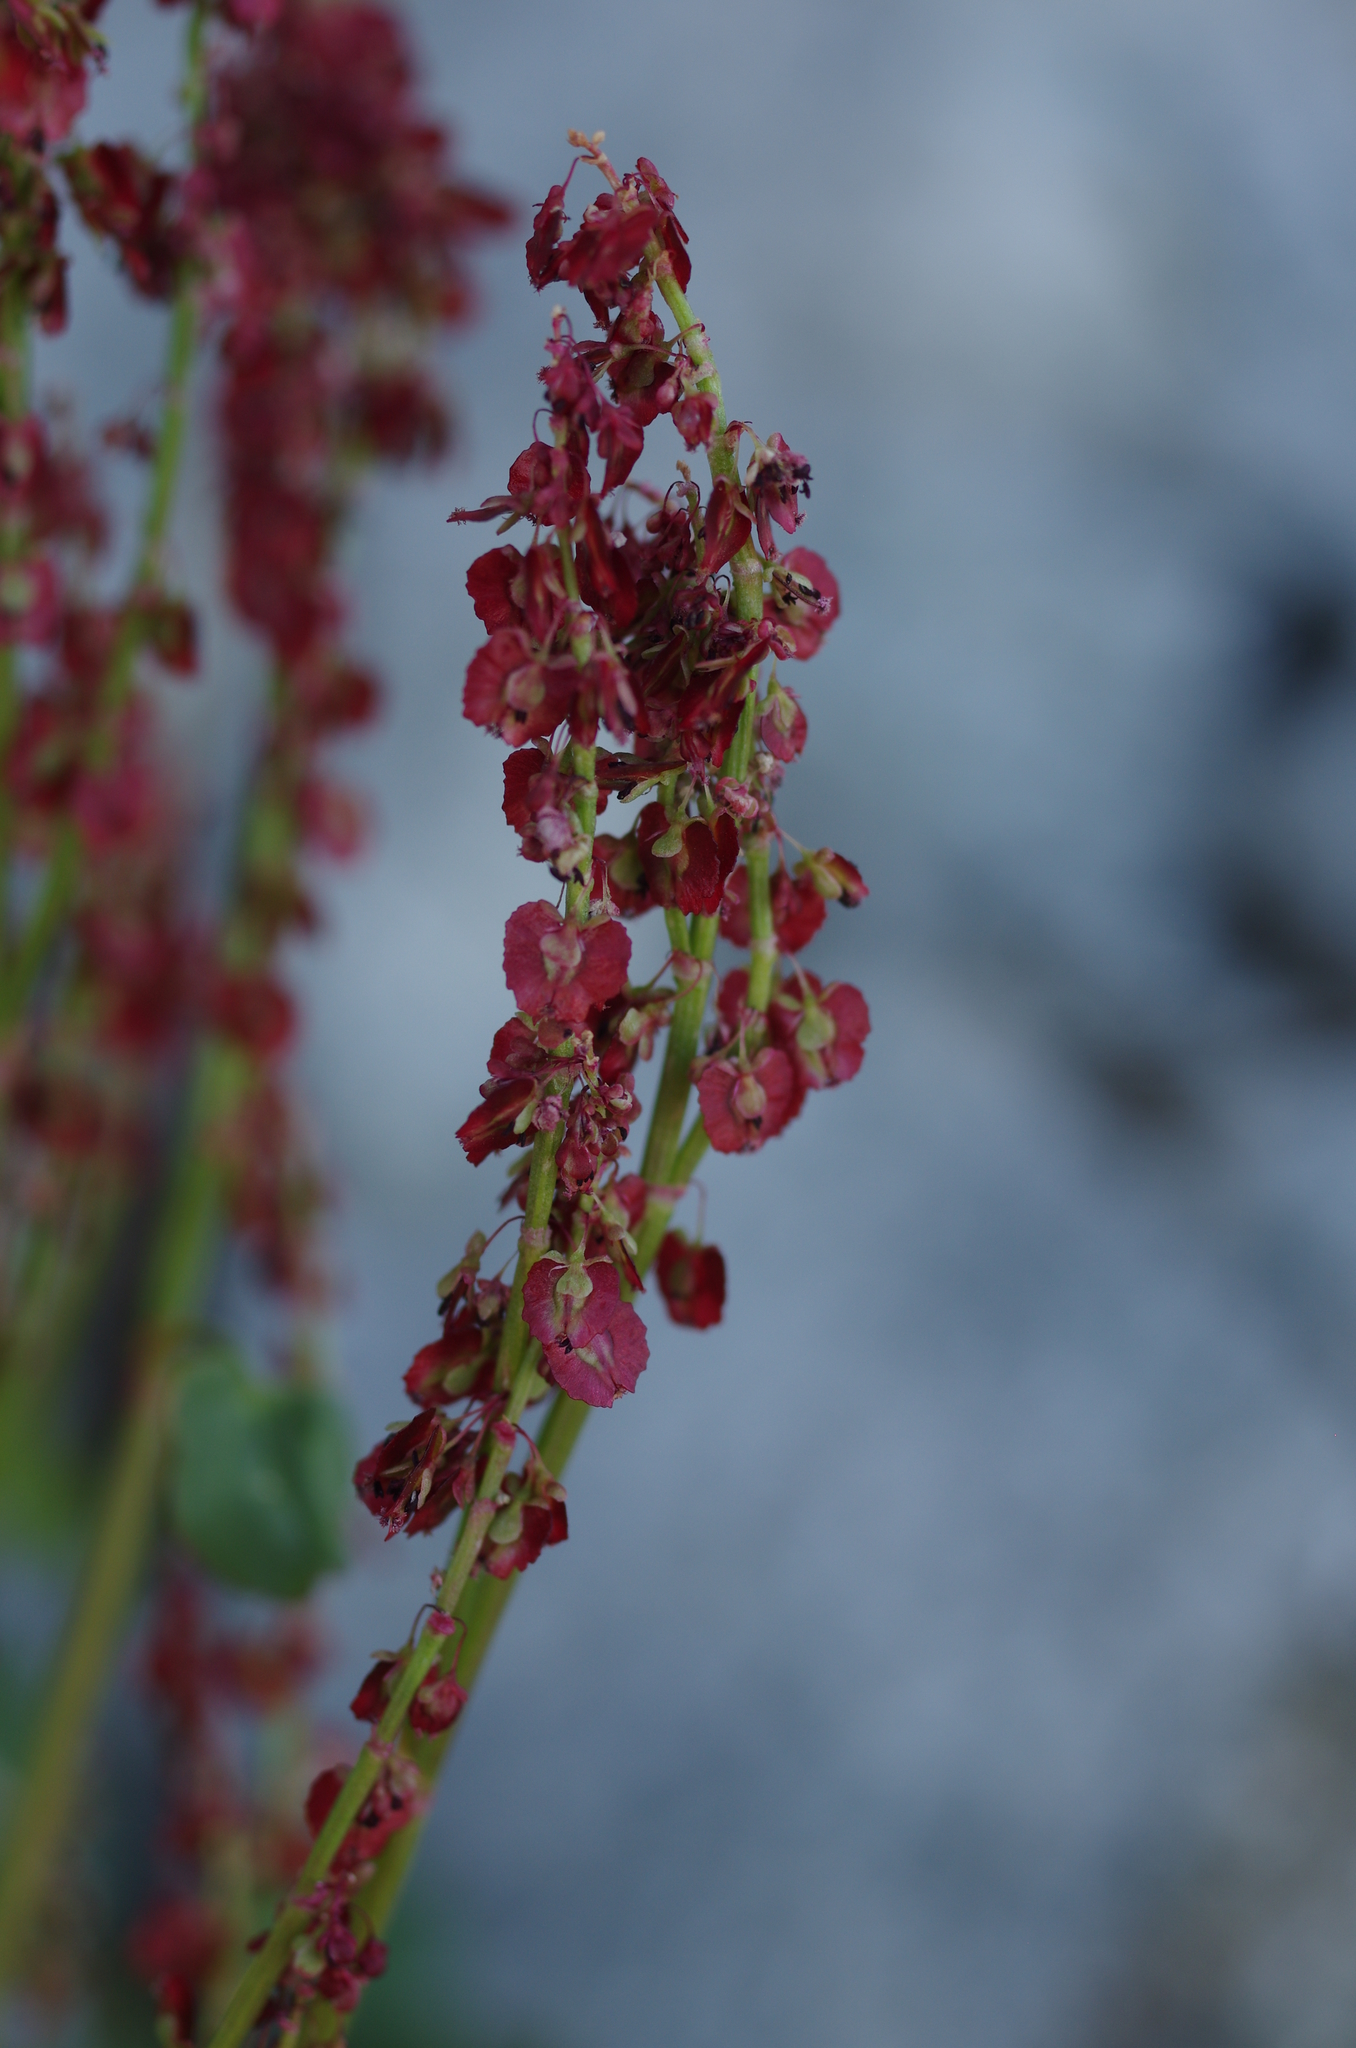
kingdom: Plantae
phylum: Tracheophyta
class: Magnoliopsida
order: Caryophyllales
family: Polygonaceae
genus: Oxyria
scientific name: Oxyria digyna
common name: Alpine mountain-sorrel
